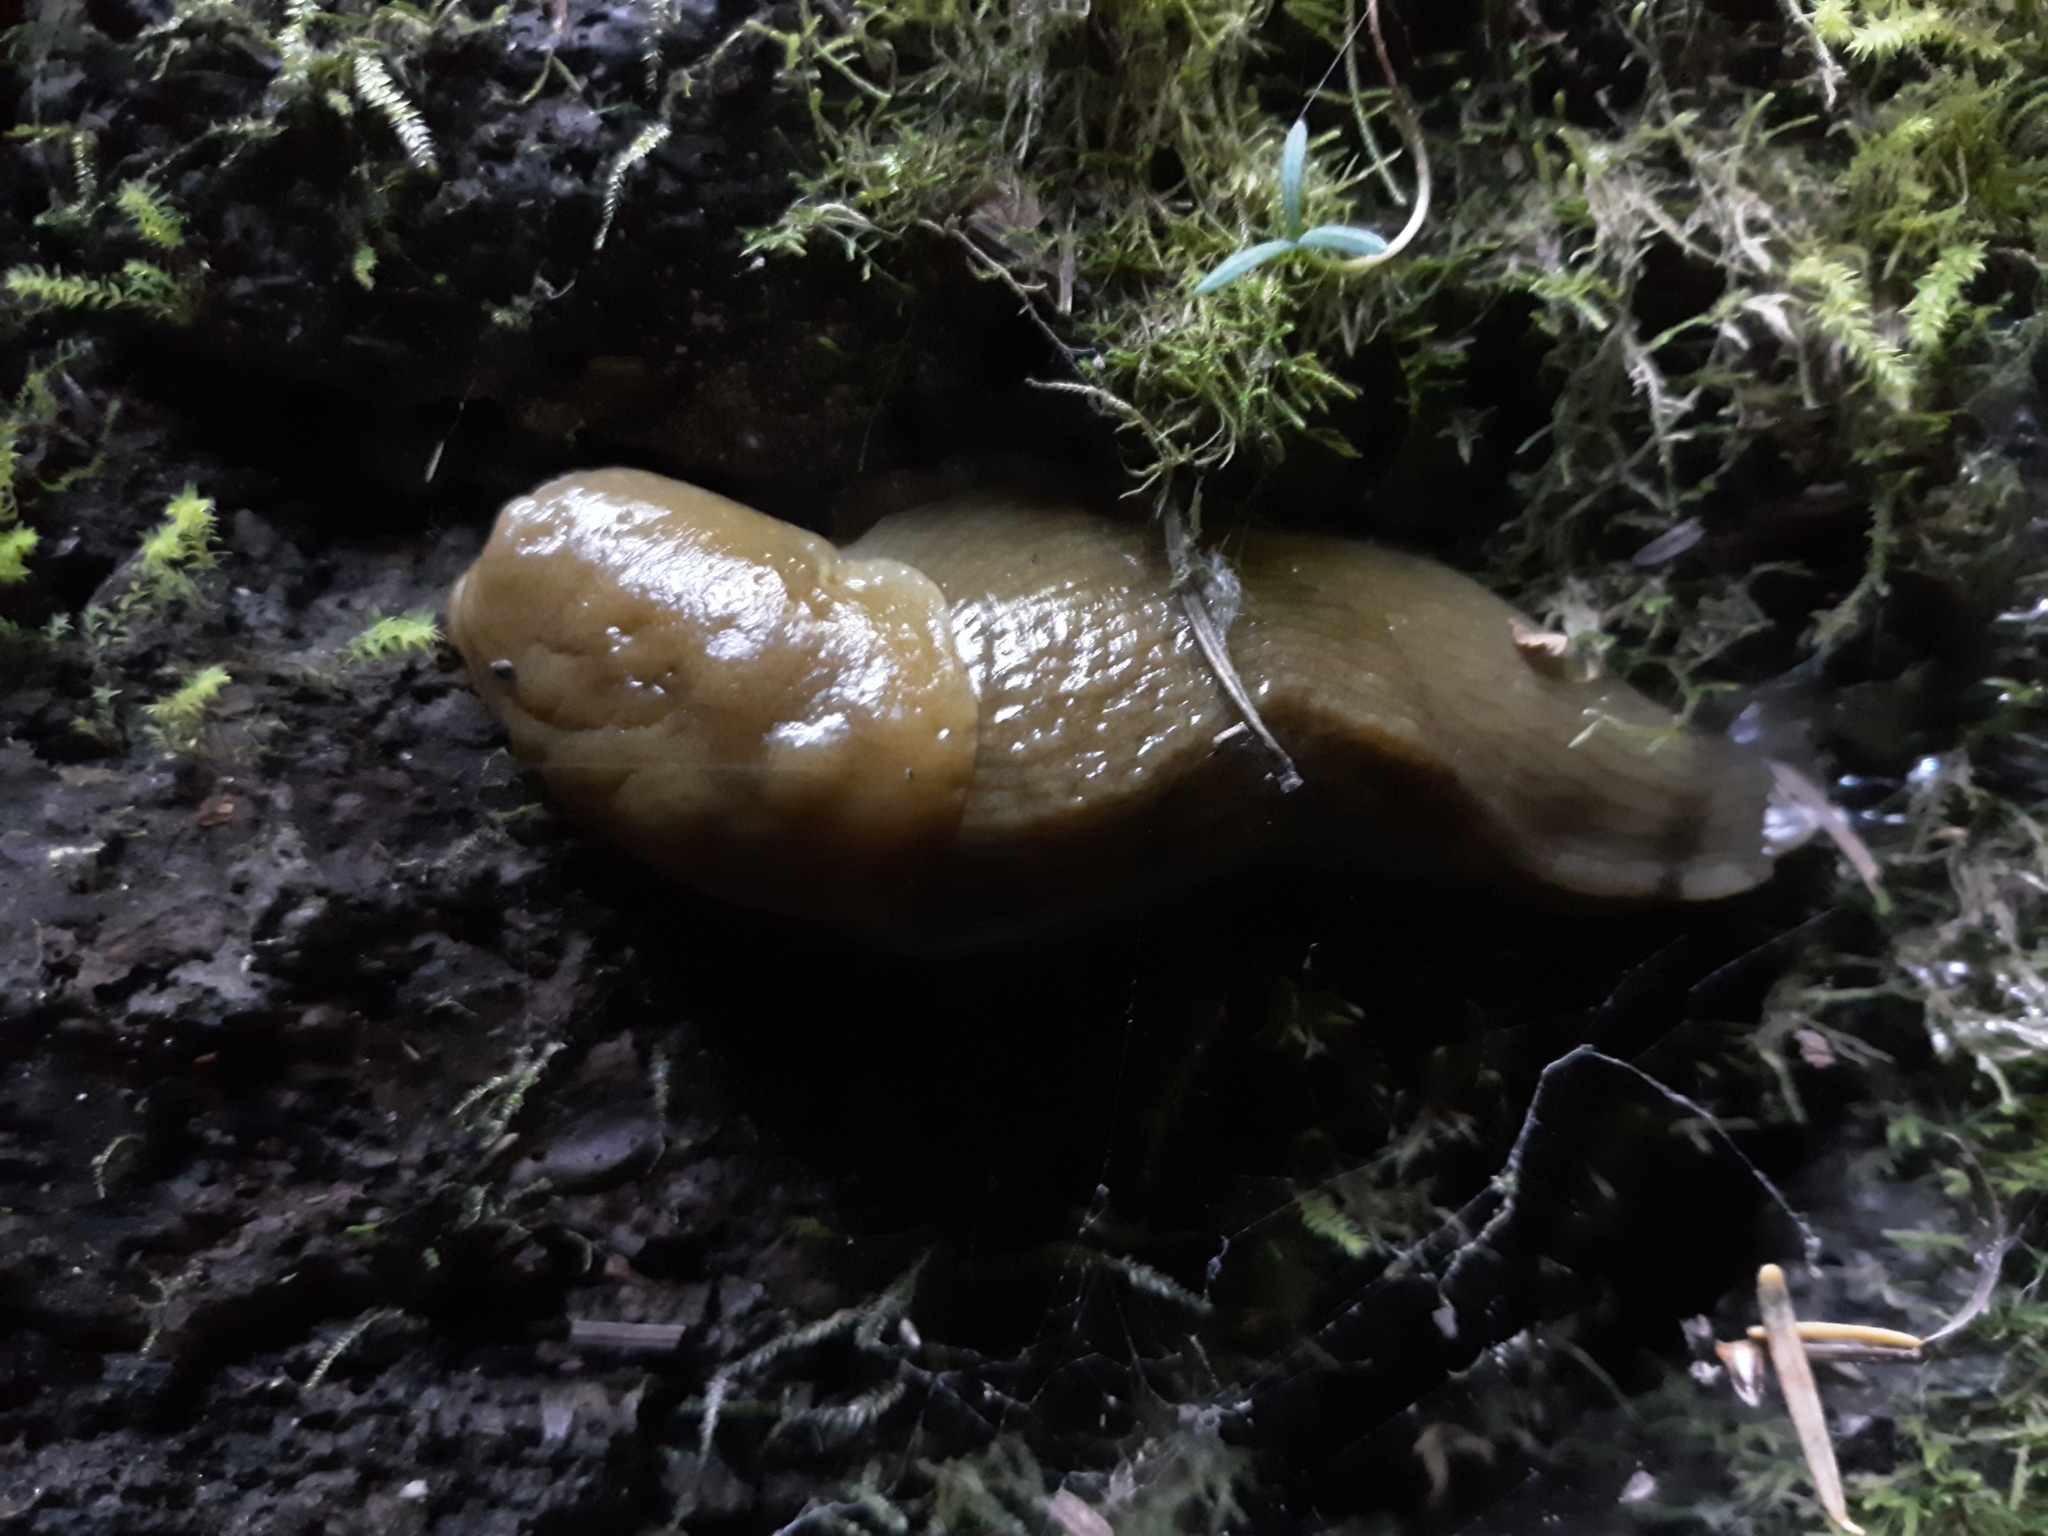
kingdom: Animalia
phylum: Mollusca
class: Gastropoda
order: Stylommatophora
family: Ariolimacidae
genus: Ariolimax
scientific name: Ariolimax columbianus
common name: Pacific banana slug
